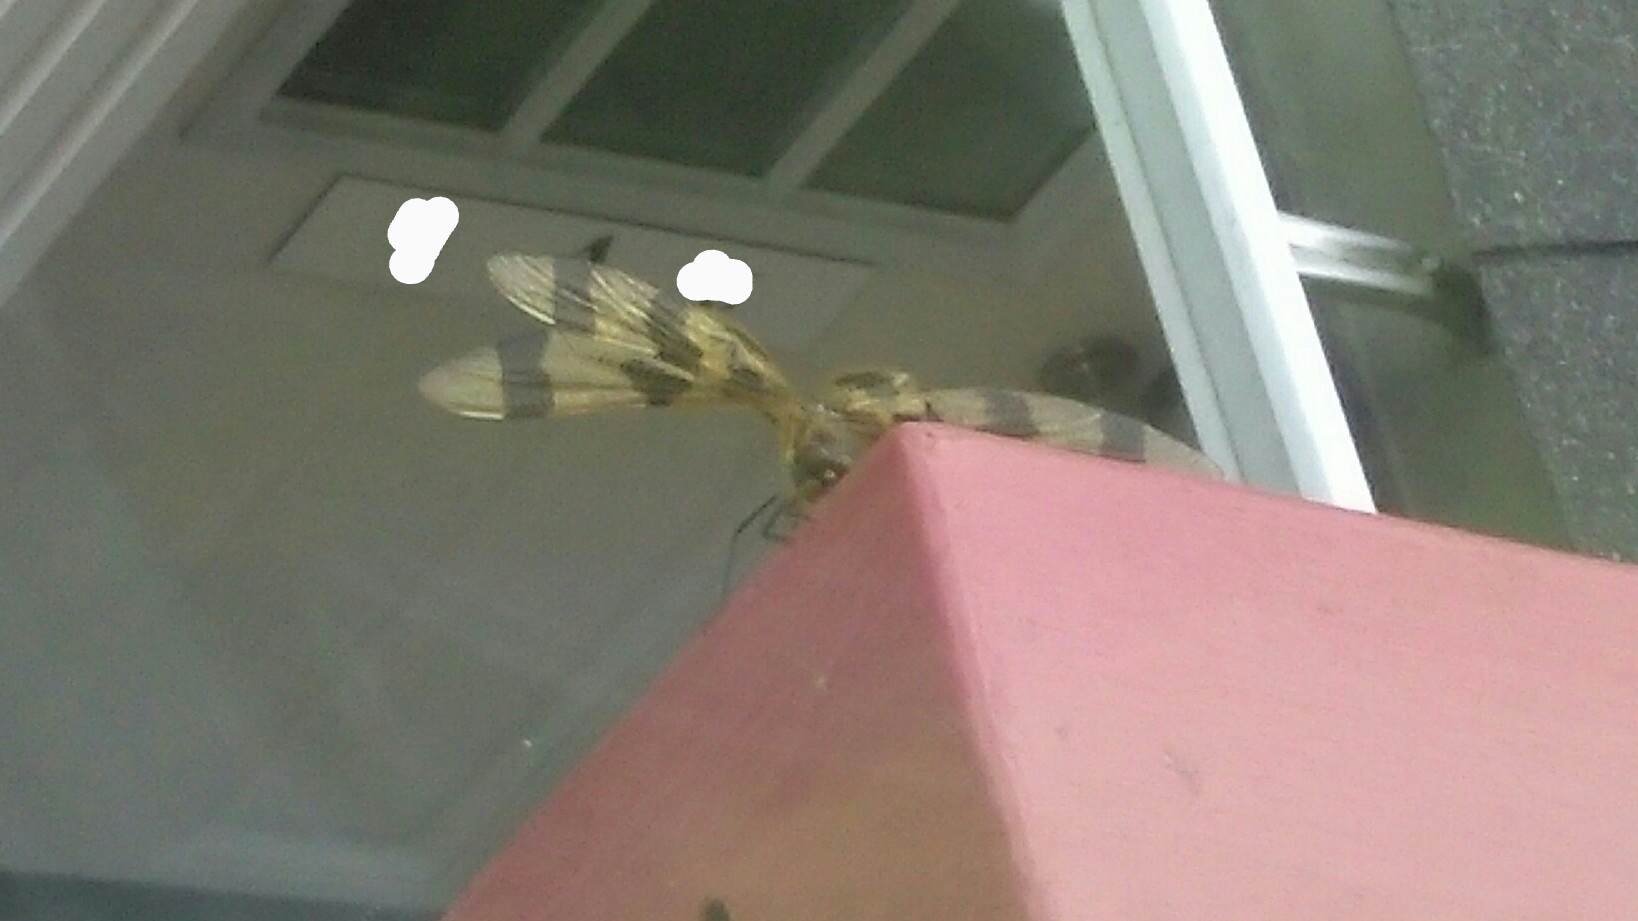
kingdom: Animalia
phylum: Arthropoda
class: Insecta
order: Odonata
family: Libellulidae
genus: Celithemis
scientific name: Celithemis eponina
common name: Halloween pennant
